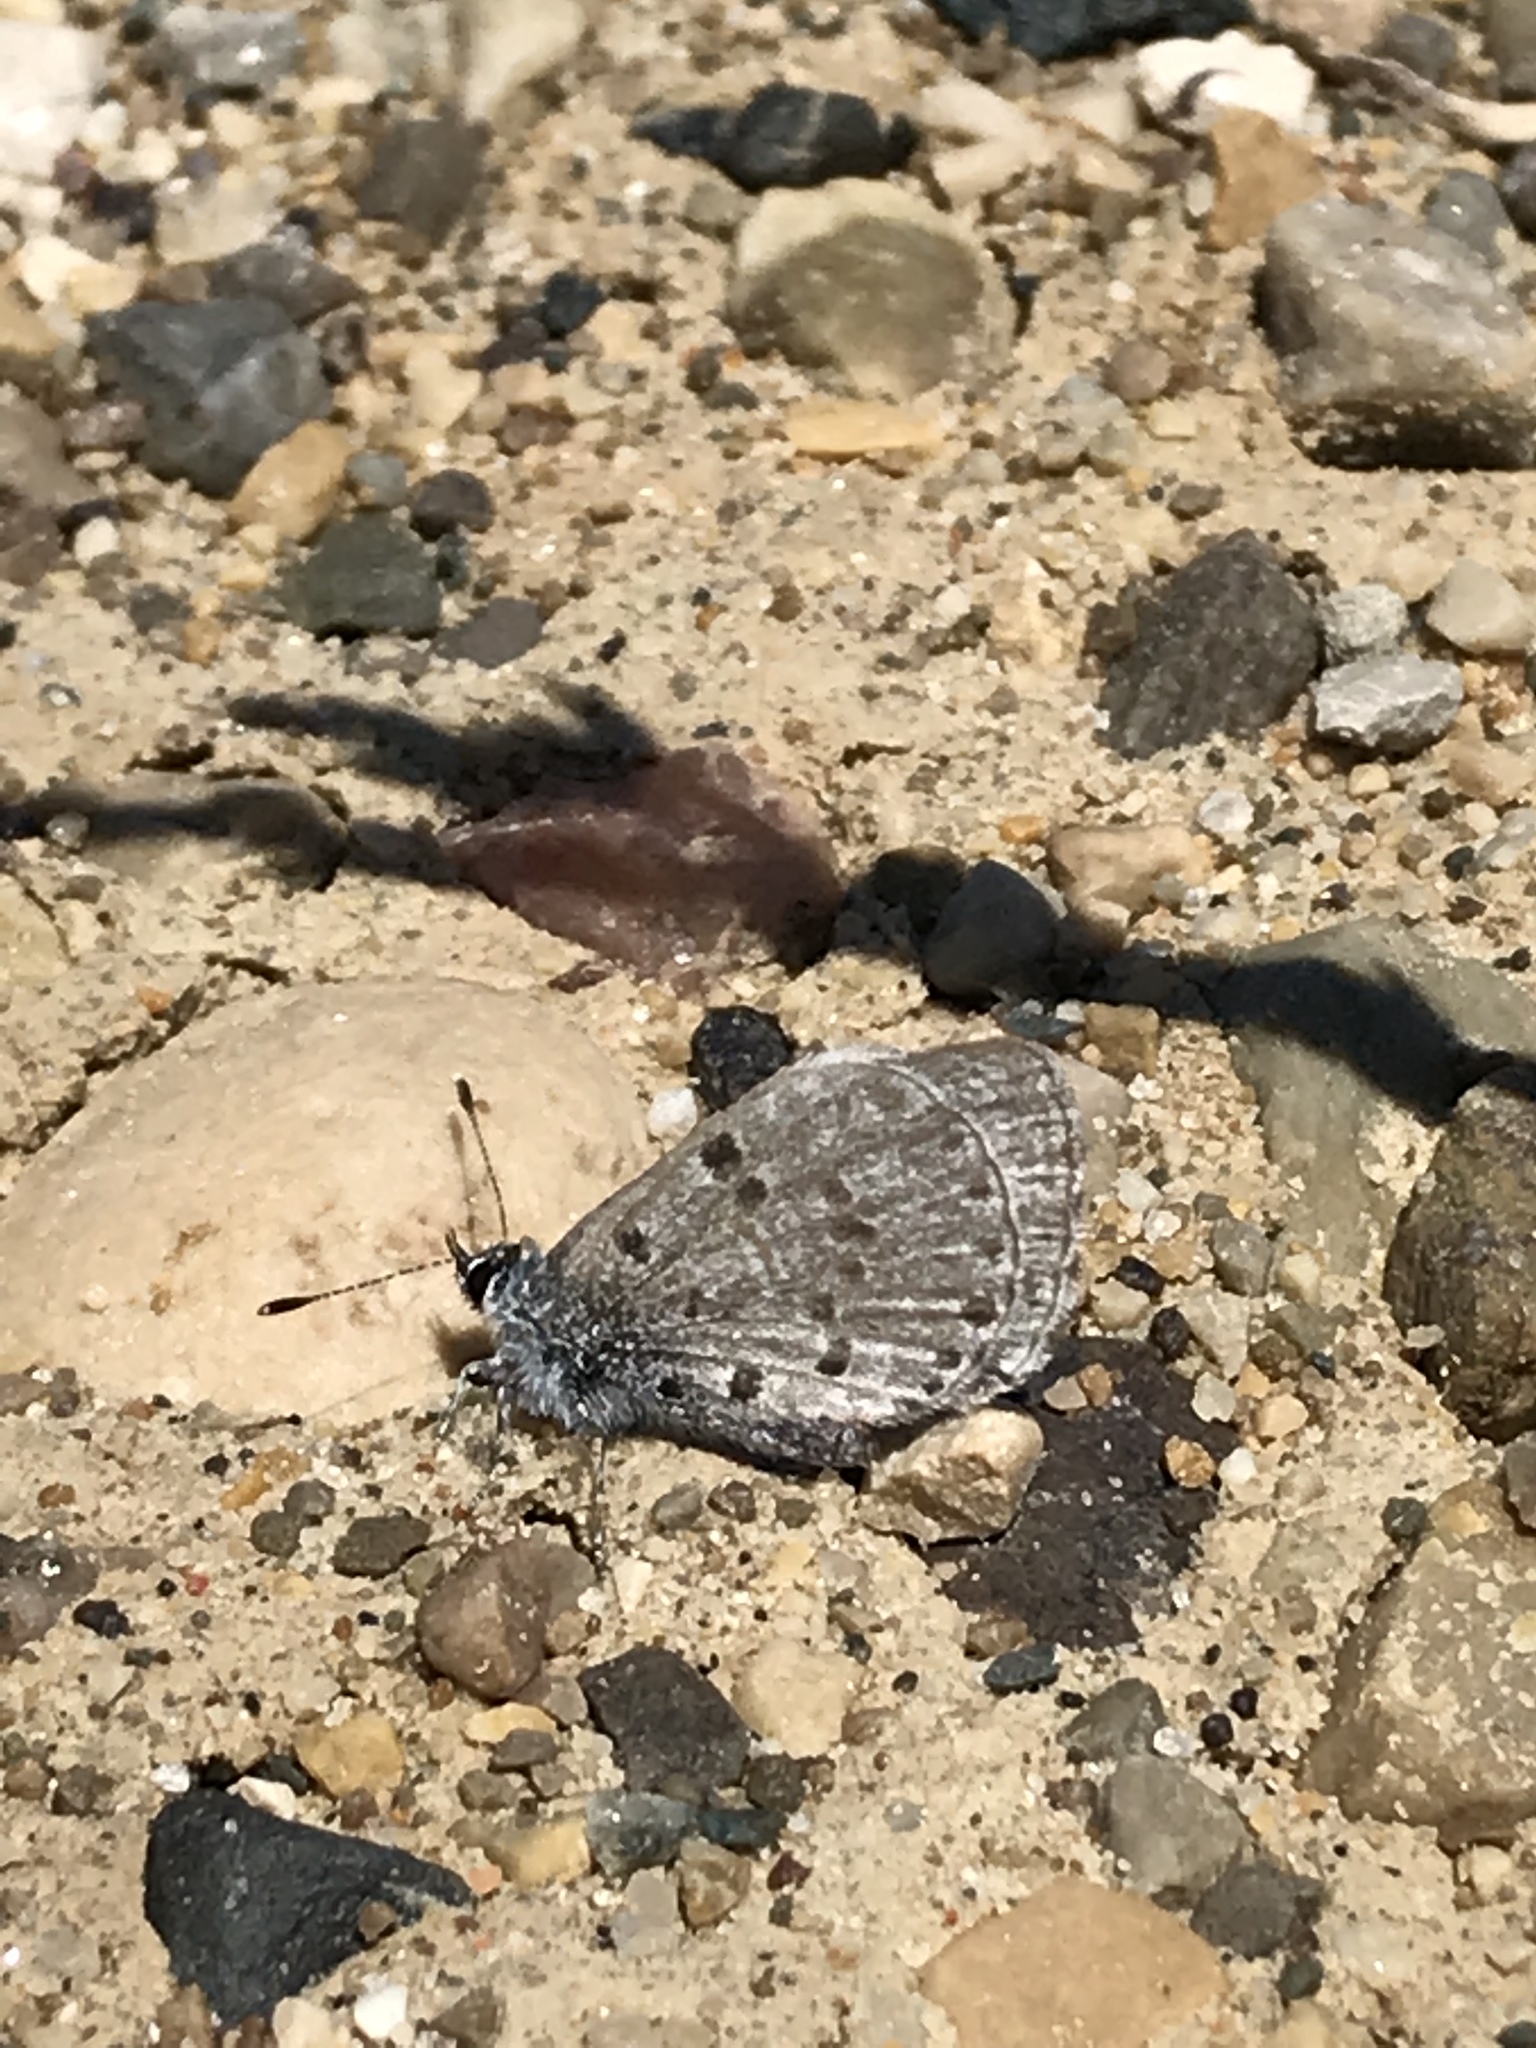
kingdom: Animalia
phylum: Arthropoda
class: Insecta
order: Lepidoptera
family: Lycaenidae
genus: Celastrina
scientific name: Celastrina lucia
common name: Lucia azure
